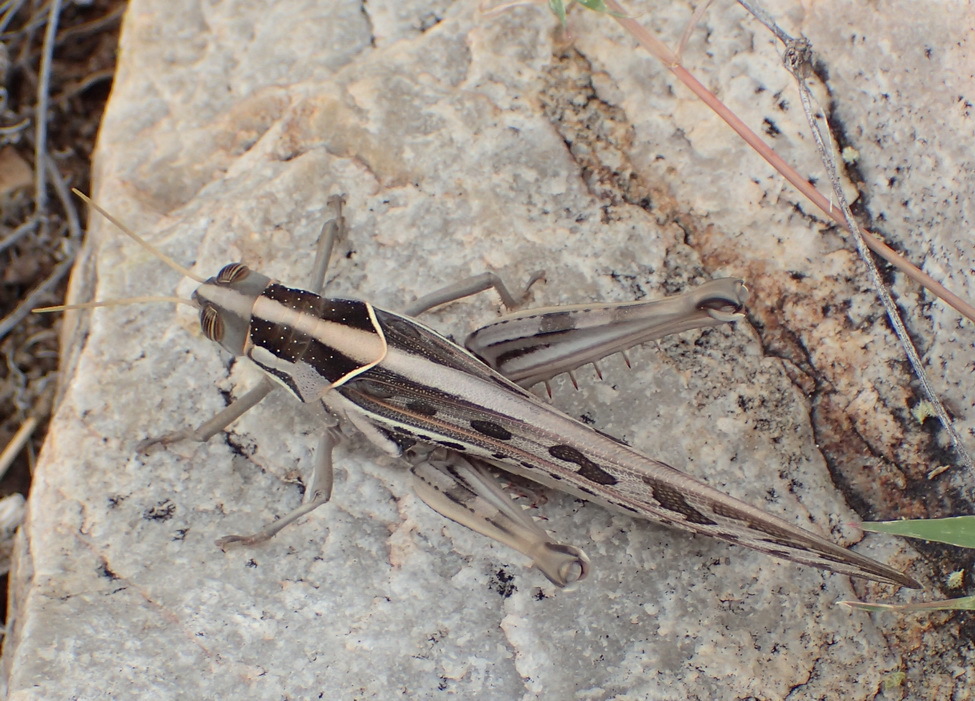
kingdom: Animalia
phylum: Arthropoda
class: Insecta
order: Orthoptera
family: Acrididae
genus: Cyrtacanthacris
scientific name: Cyrtacanthacris tatarica
